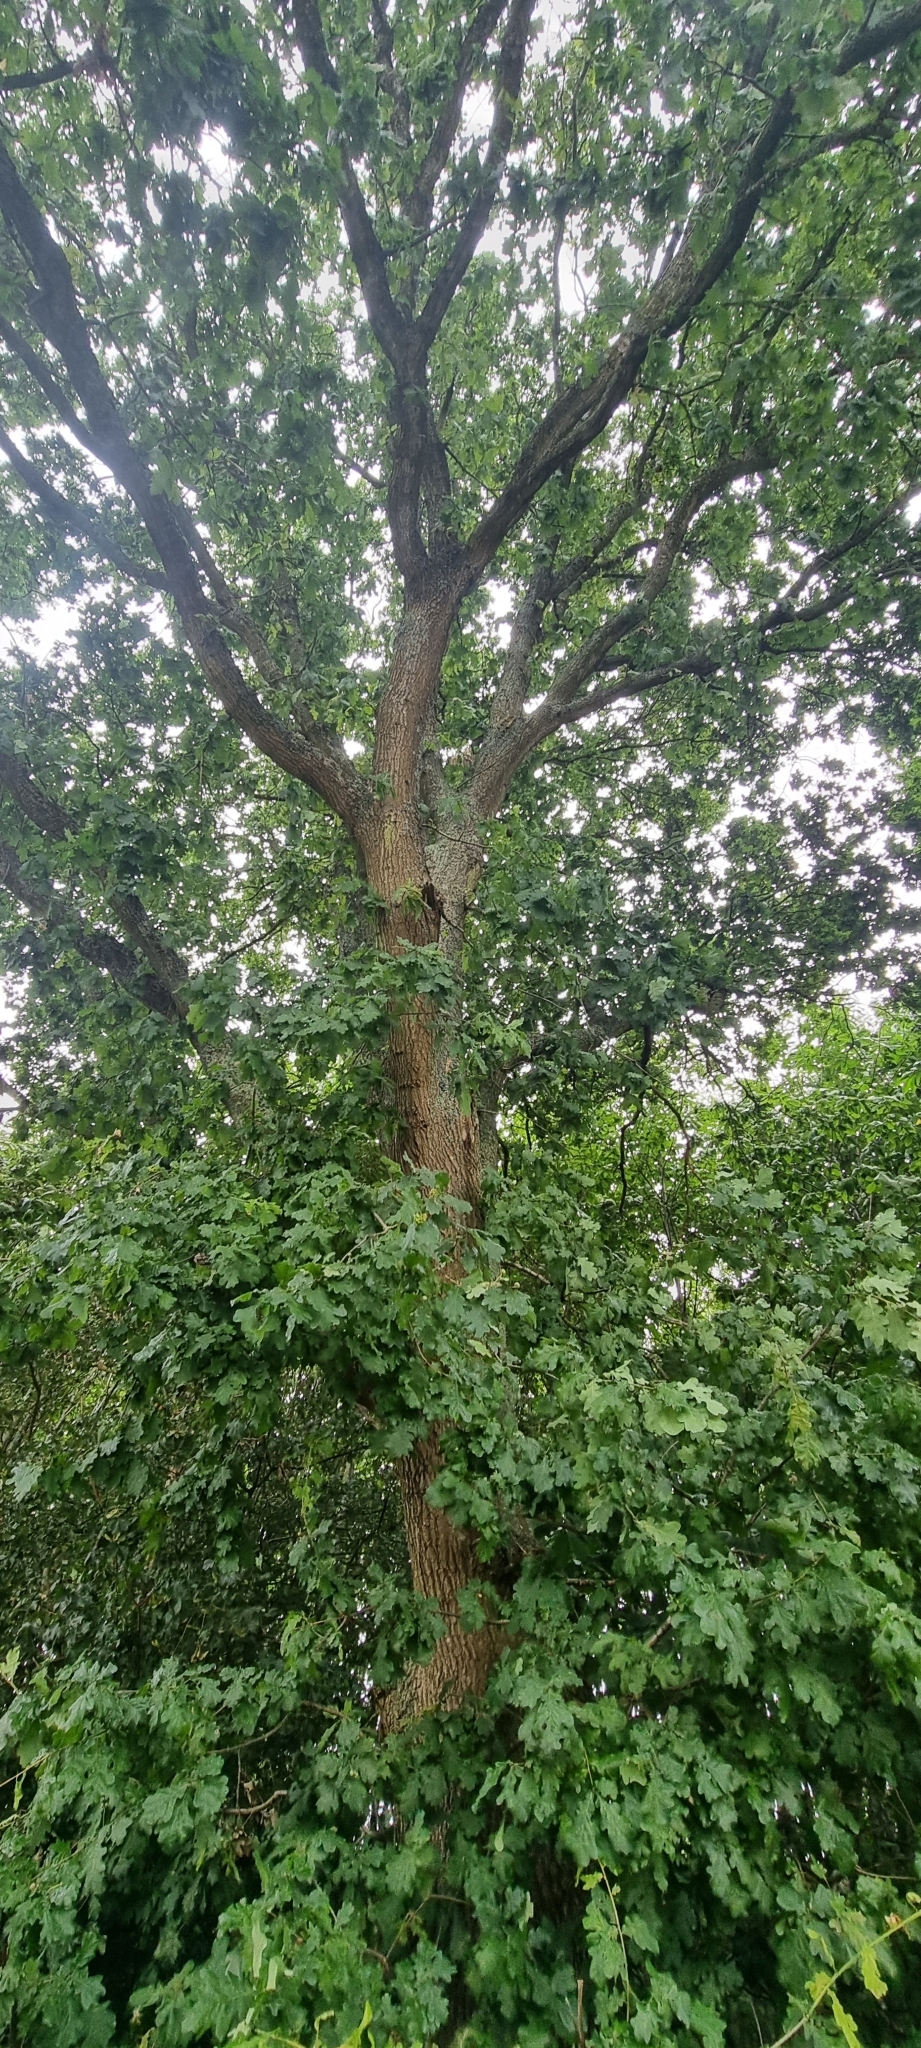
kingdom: Plantae
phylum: Tracheophyta
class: Magnoliopsida
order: Fagales
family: Fagaceae
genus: Quercus
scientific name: Quercus robur
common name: Pedunculate oak
